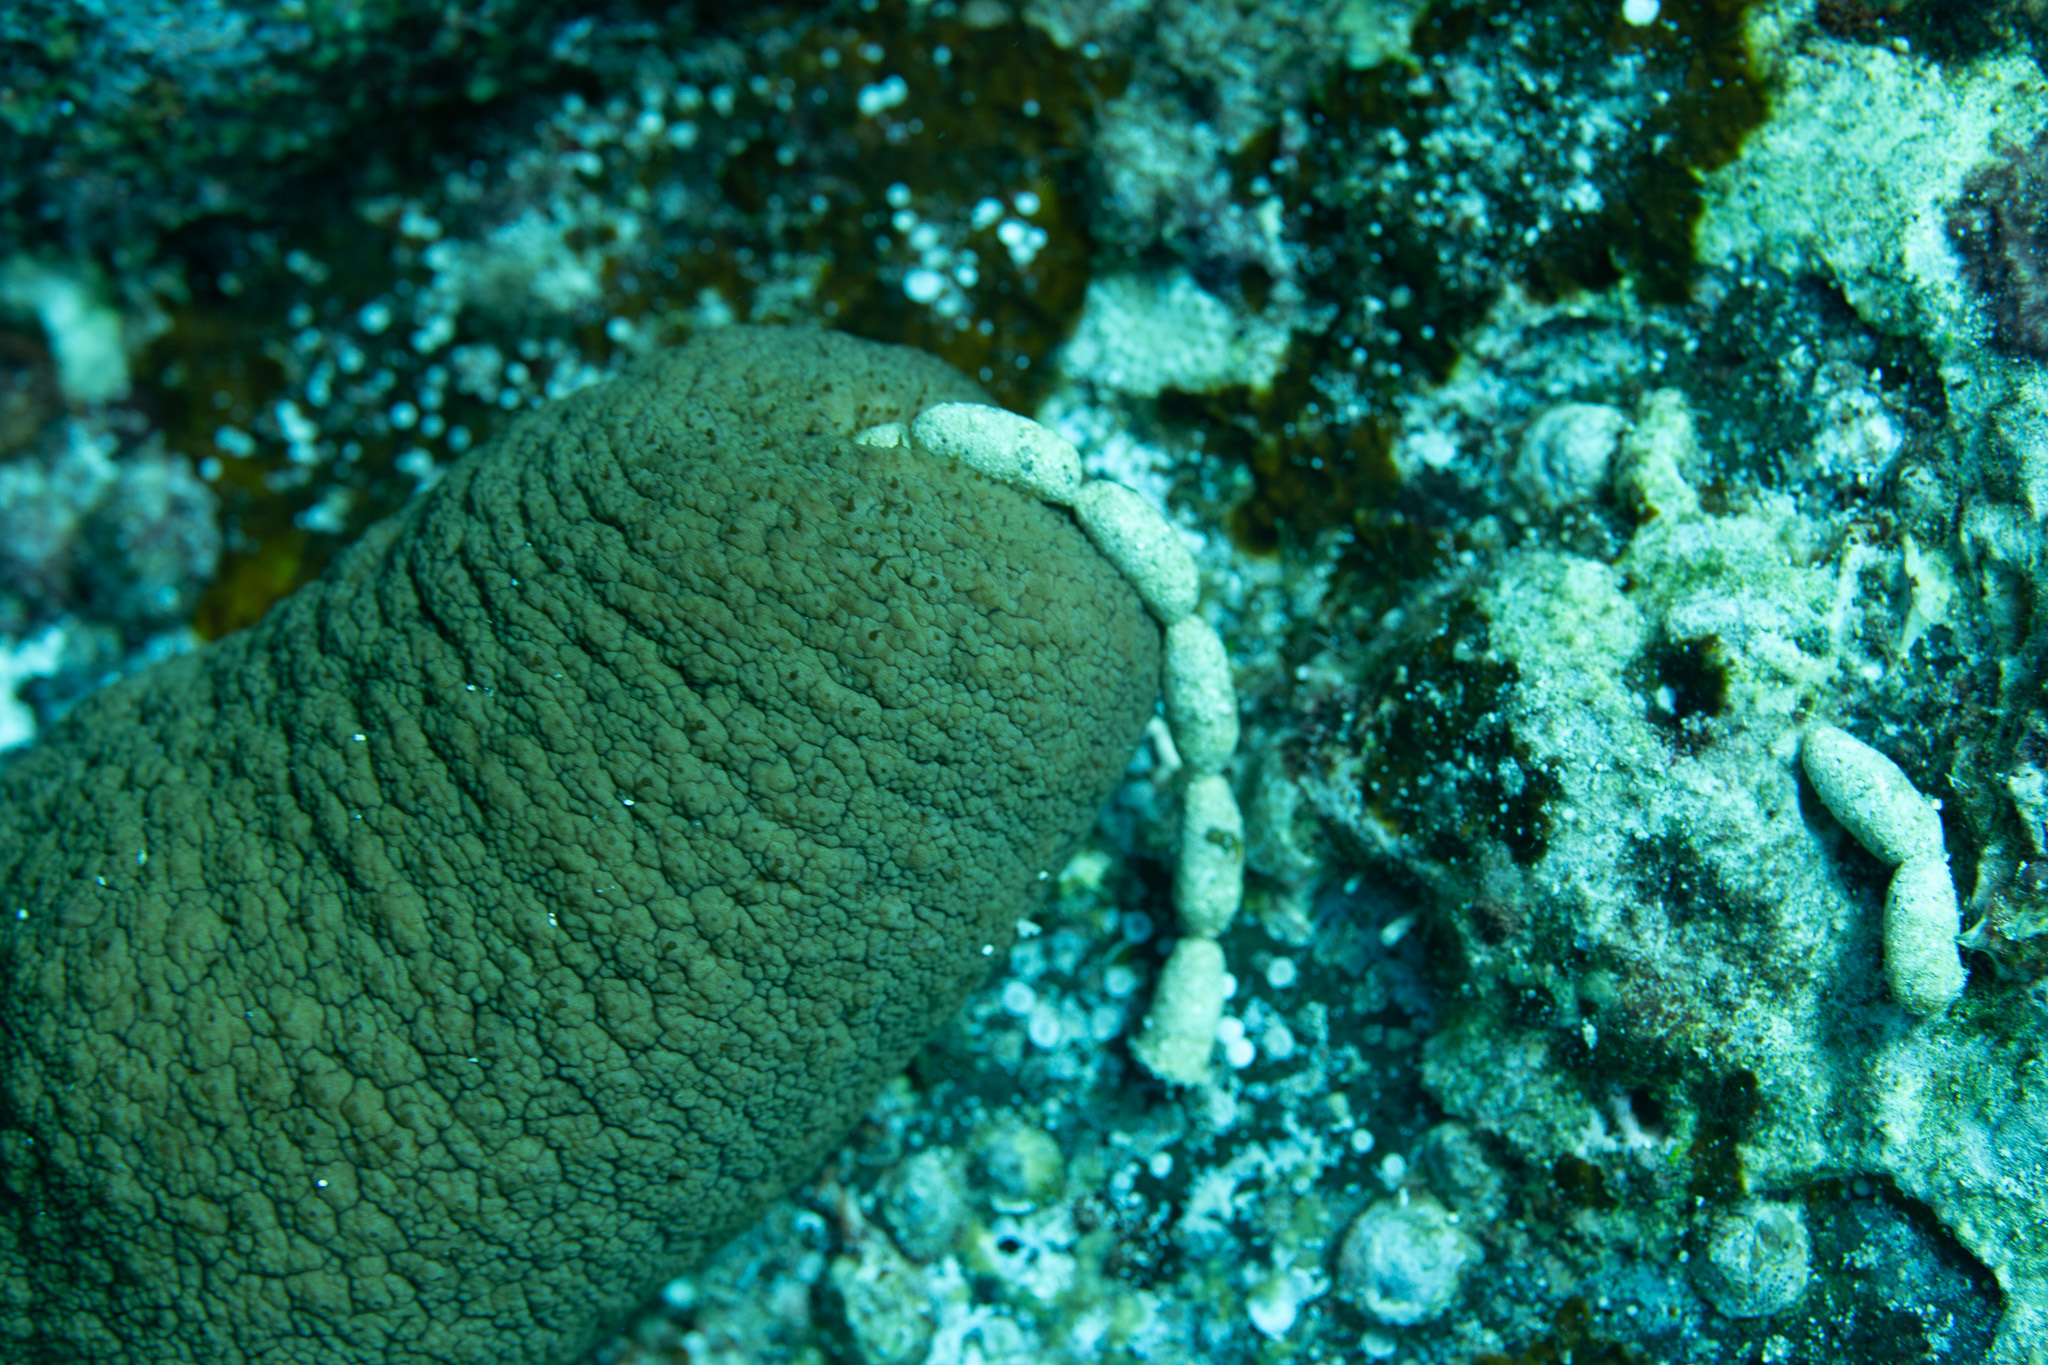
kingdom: Animalia
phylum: Echinodermata
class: Holothuroidea
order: Holothuriida
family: Holothuriidae
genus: Actinopyga
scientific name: Actinopyga obesa
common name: Plump sea cucumber
